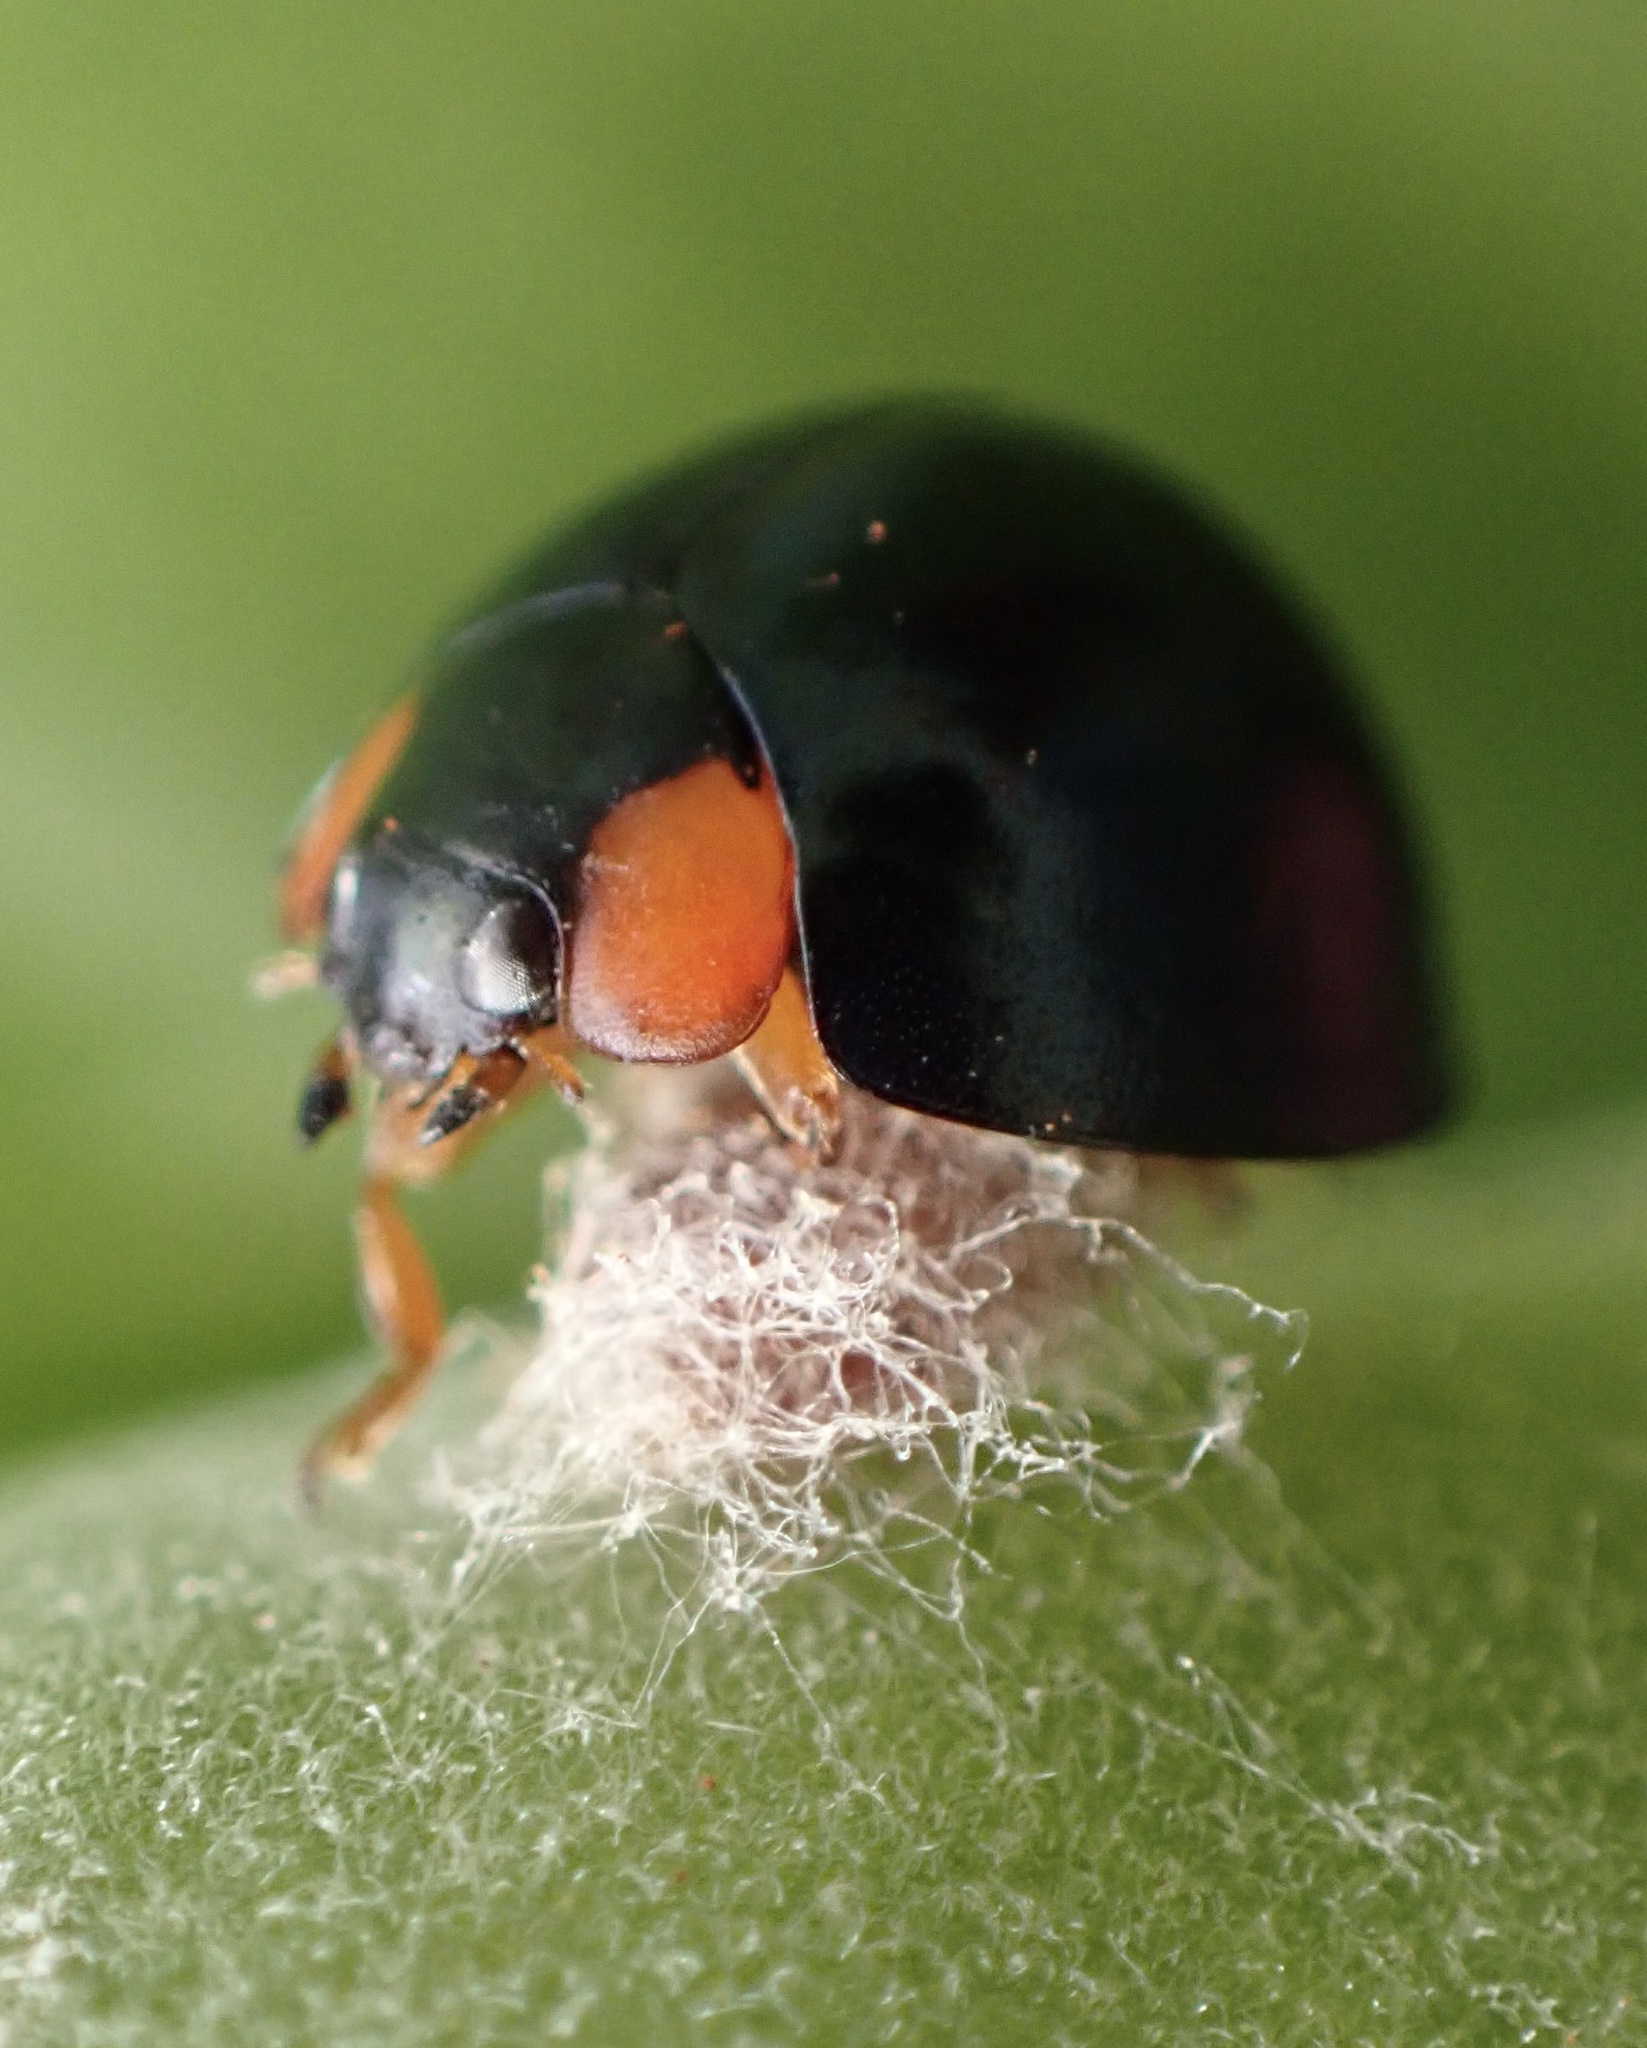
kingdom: Animalia
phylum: Arthropoda
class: Insecta
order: Hymenoptera
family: Braconidae
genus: Dinocampus
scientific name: Dinocampus coccinellae
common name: Braconid wasp
